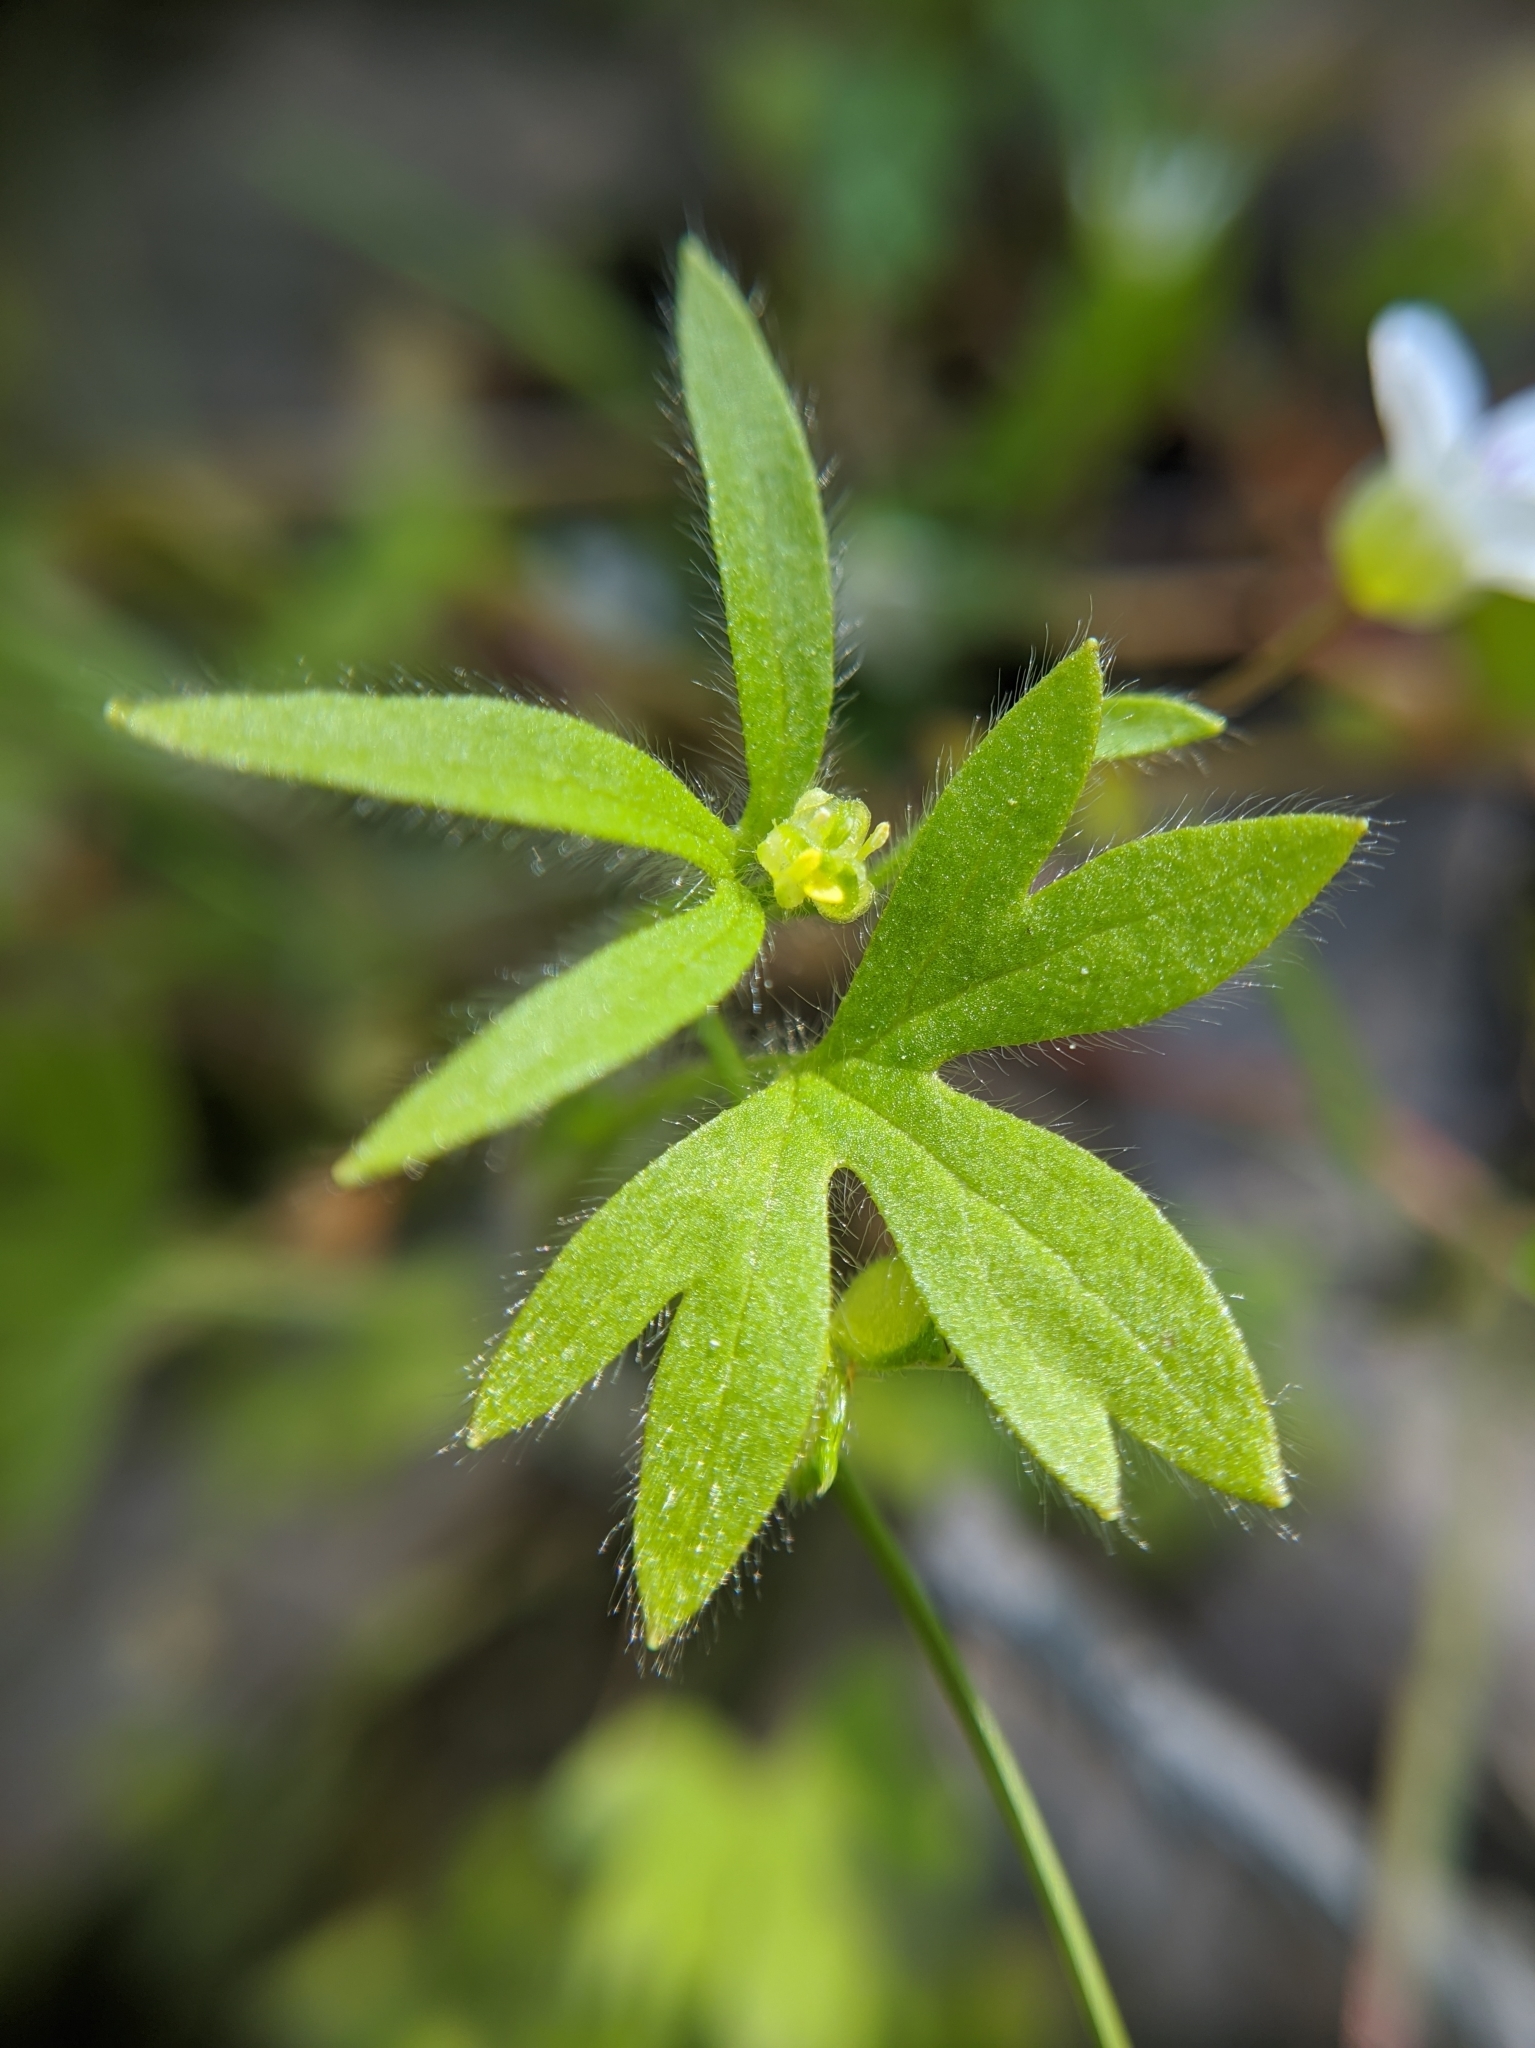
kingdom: Plantae
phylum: Tracheophyta
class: Magnoliopsida
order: Ranunculales
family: Ranunculaceae
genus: Ranunculus
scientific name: Ranunculus hebecarpus
